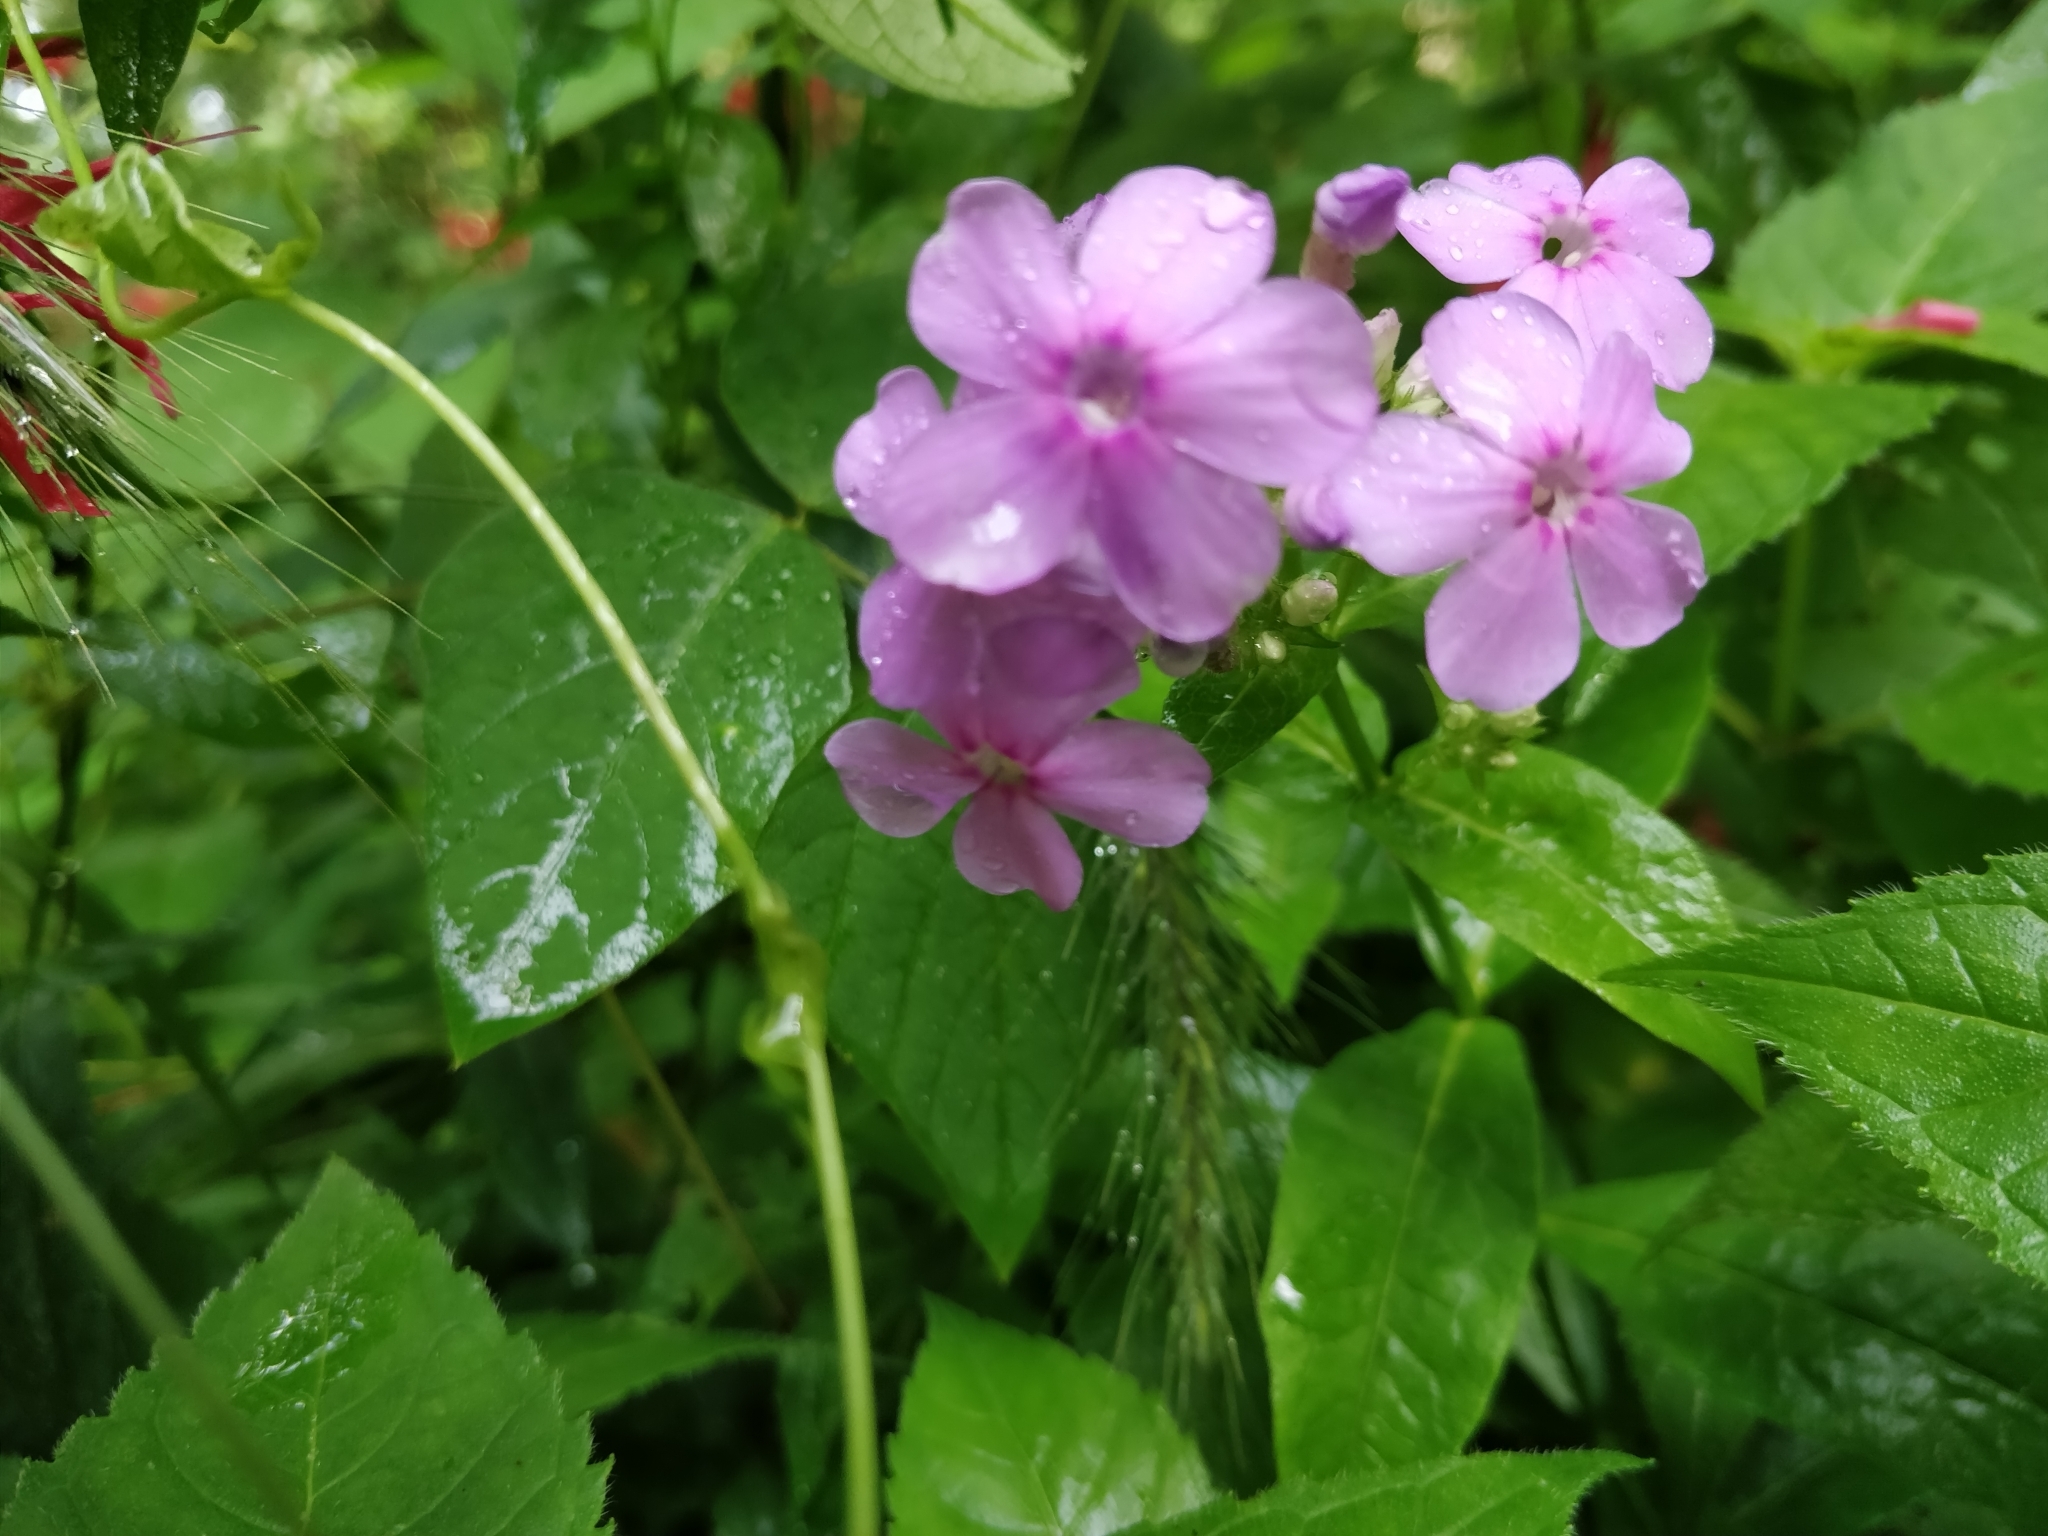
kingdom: Plantae
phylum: Tracheophyta
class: Magnoliopsida
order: Ericales
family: Polemoniaceae
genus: Phlox
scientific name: Phlox paniculata
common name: Fall phlox
